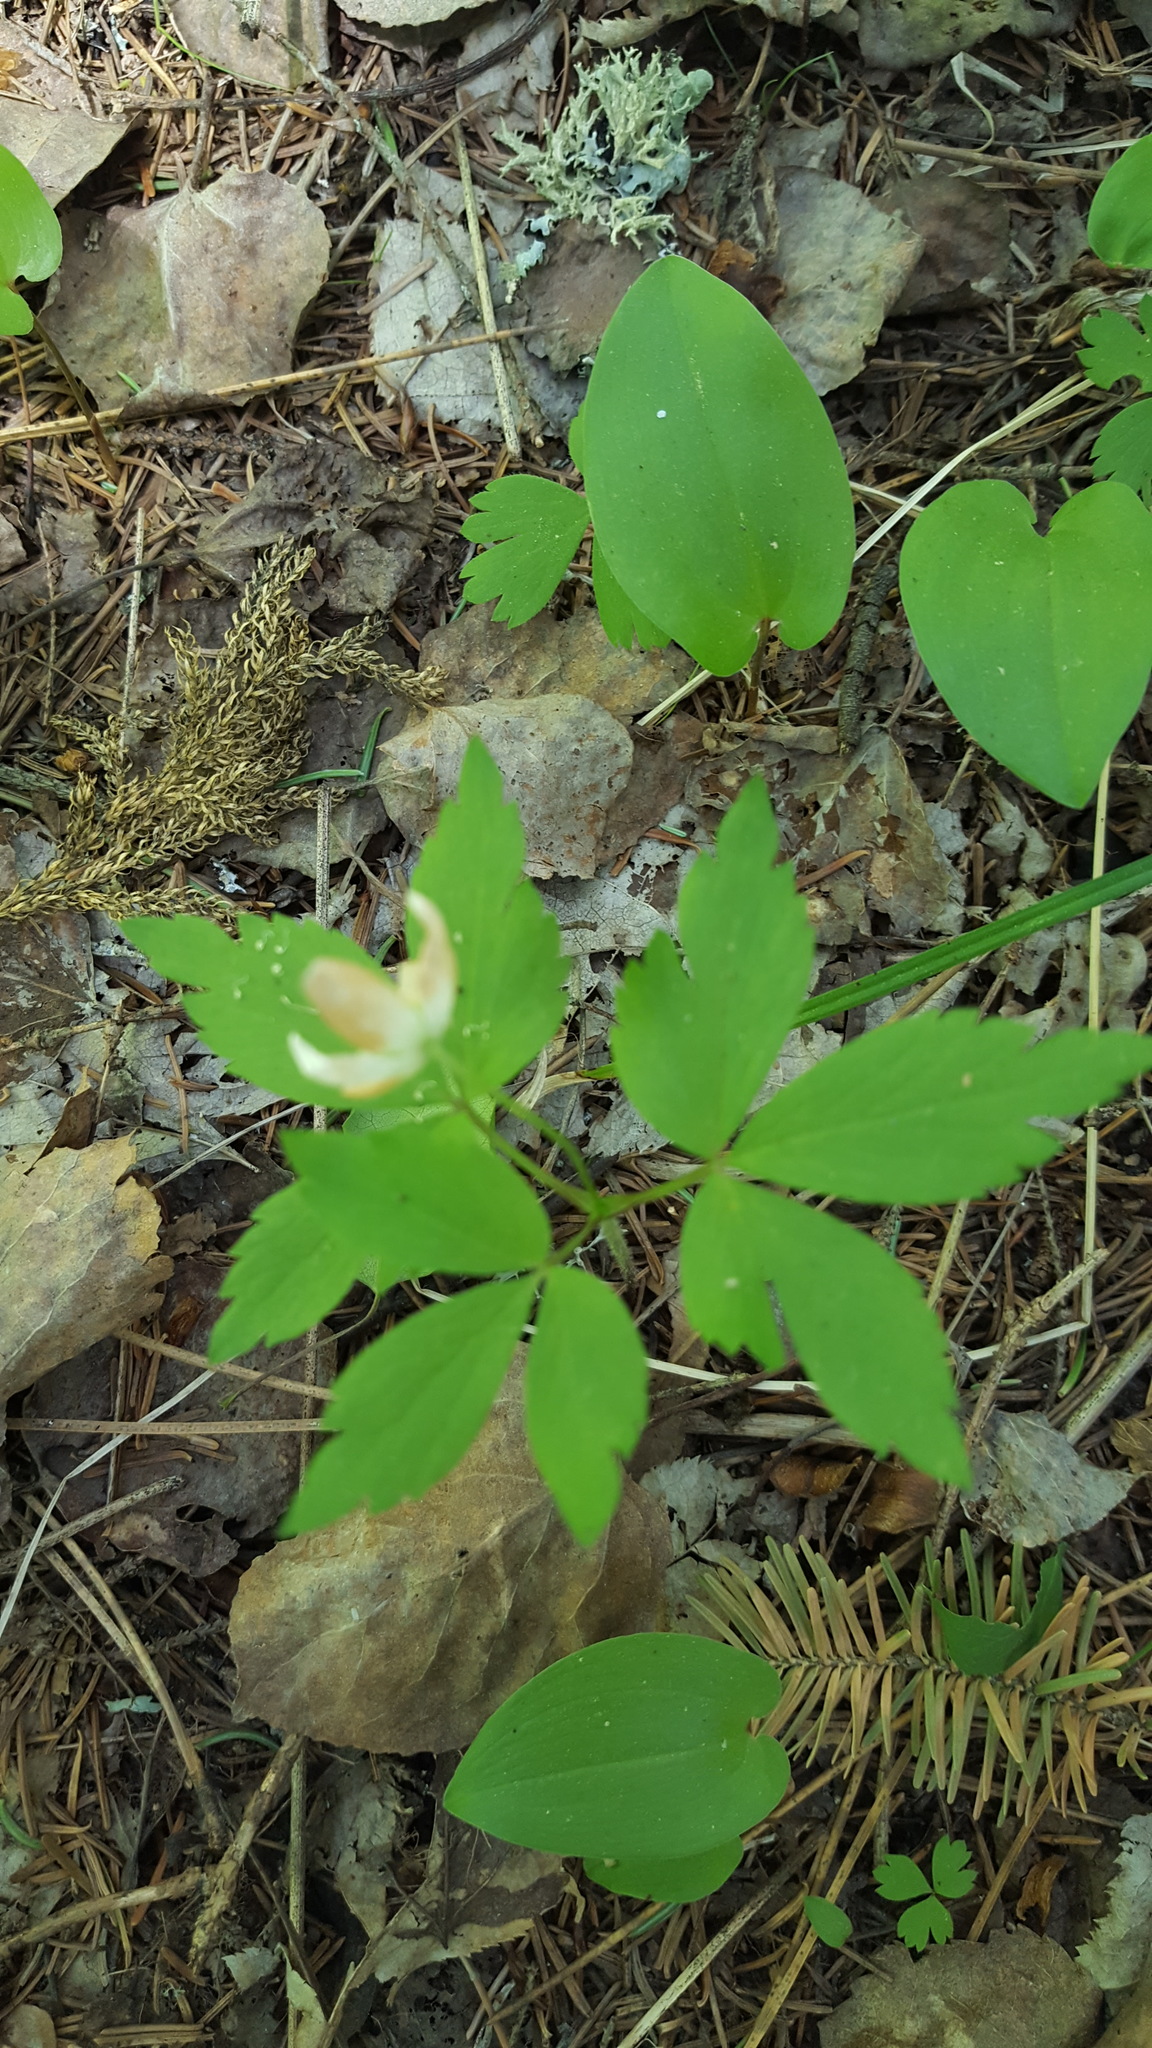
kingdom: Plantae
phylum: Tracheophyta
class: Magnoliopsida
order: Ranunculales
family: Ranunculaceae
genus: Anemone
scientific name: Anemone quinquefolia
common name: Wood anemone
